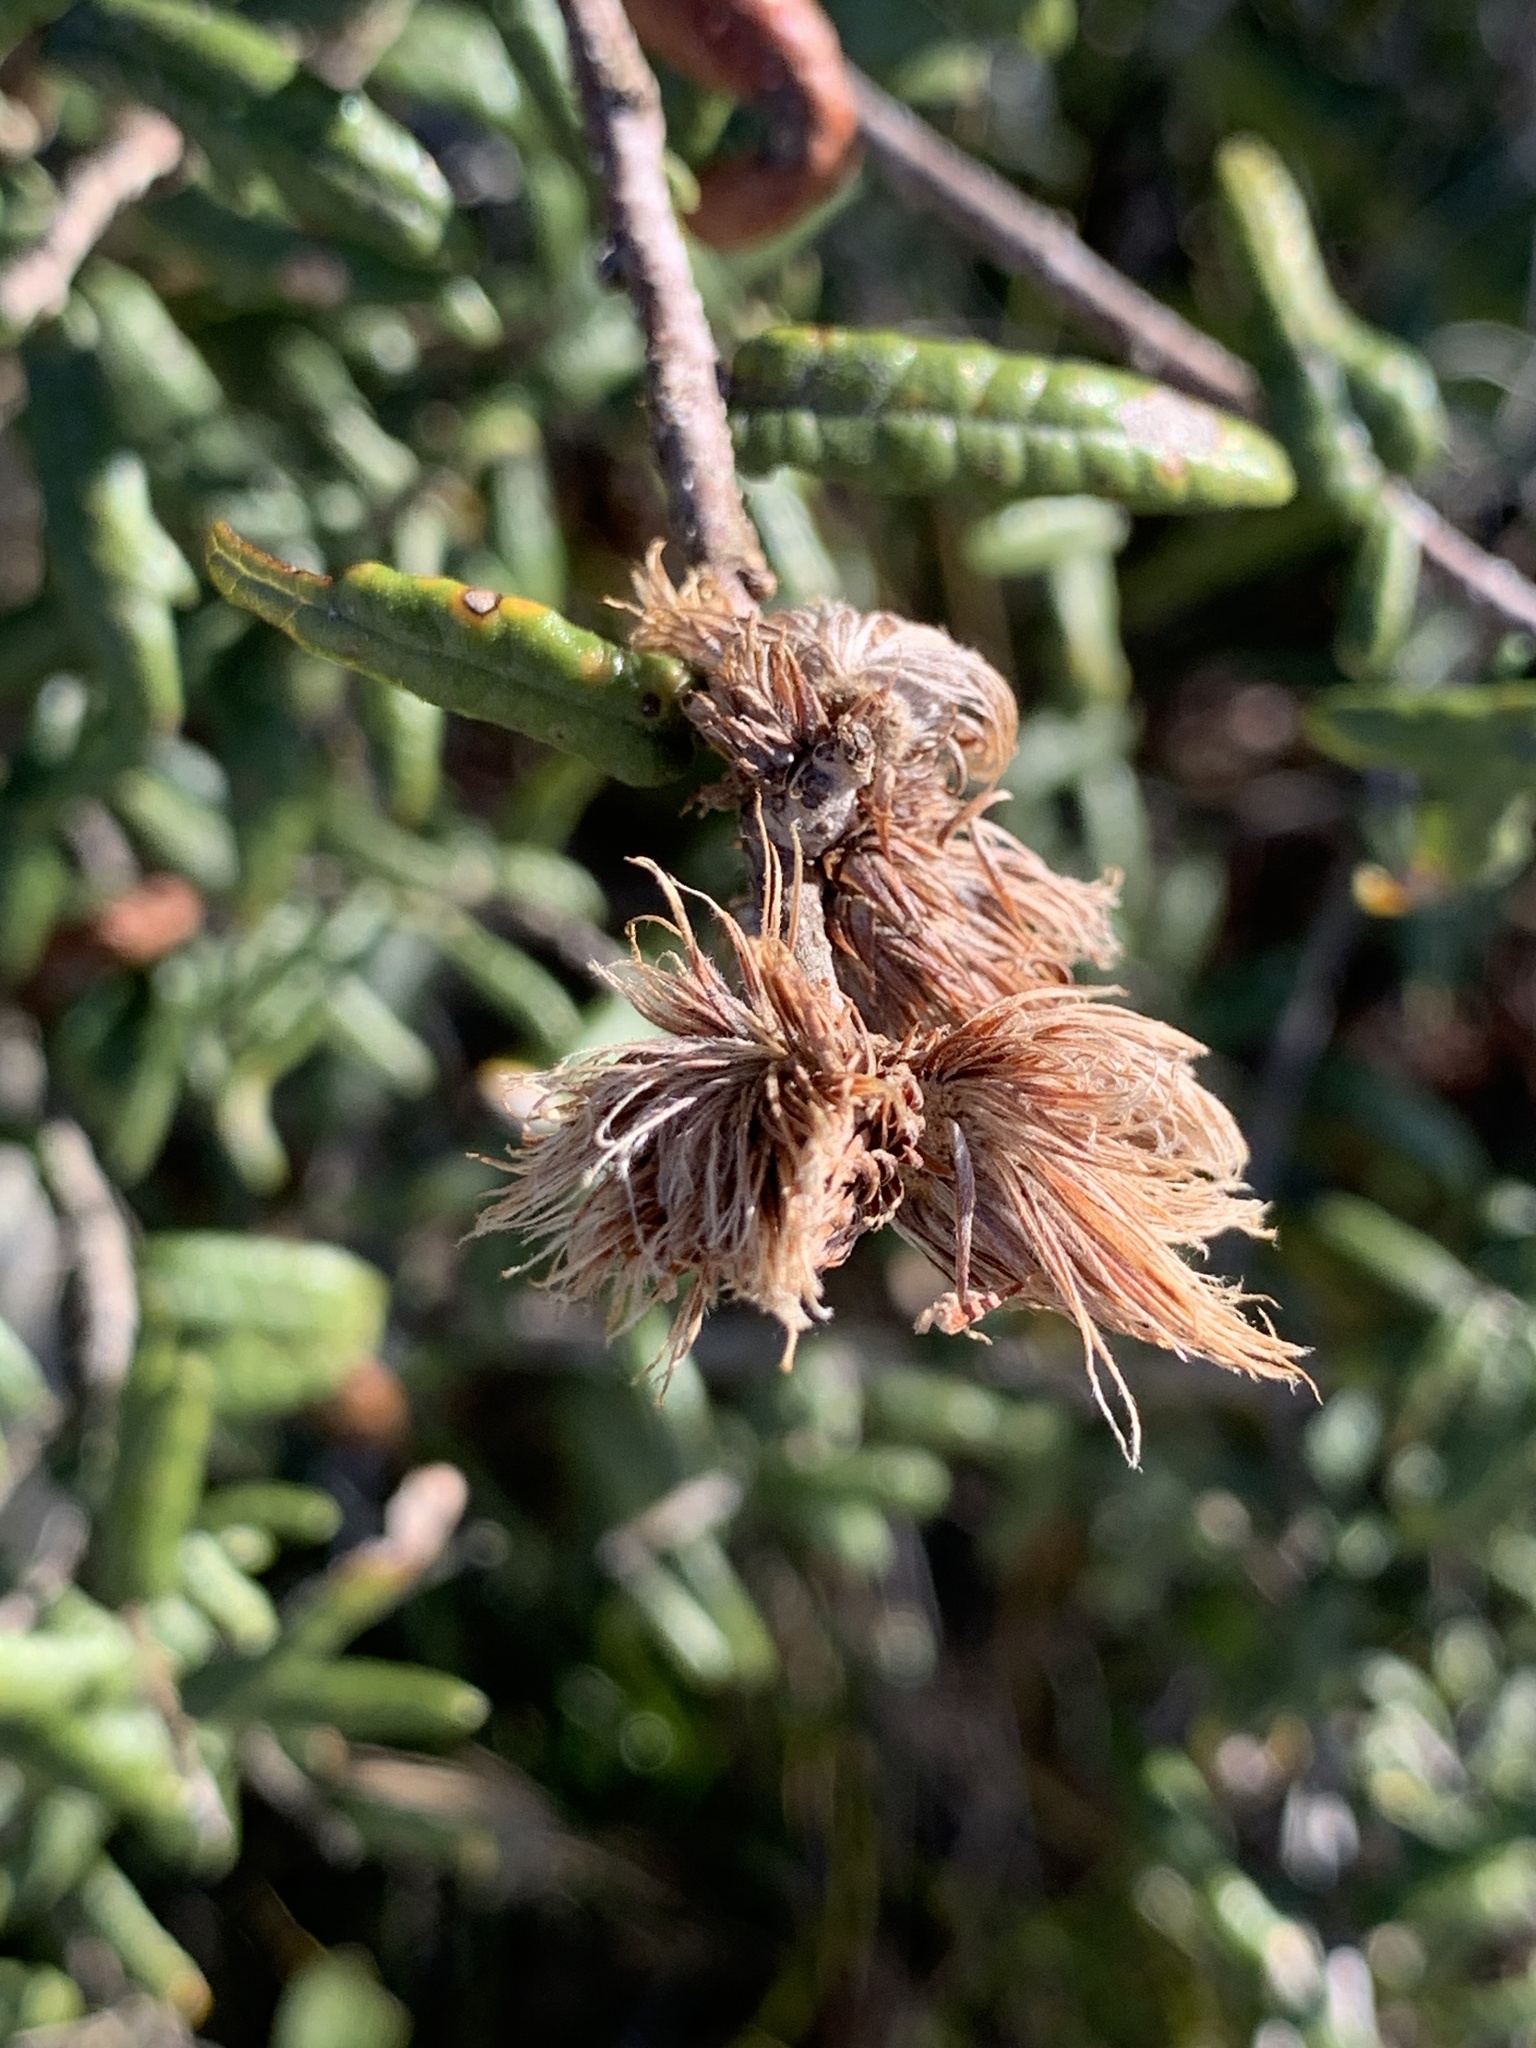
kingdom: Animalia
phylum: Arthropoda
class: Insecta
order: Hymenoptera
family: Cynipidae
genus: Andricus
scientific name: Andricus quercusfoliatus
